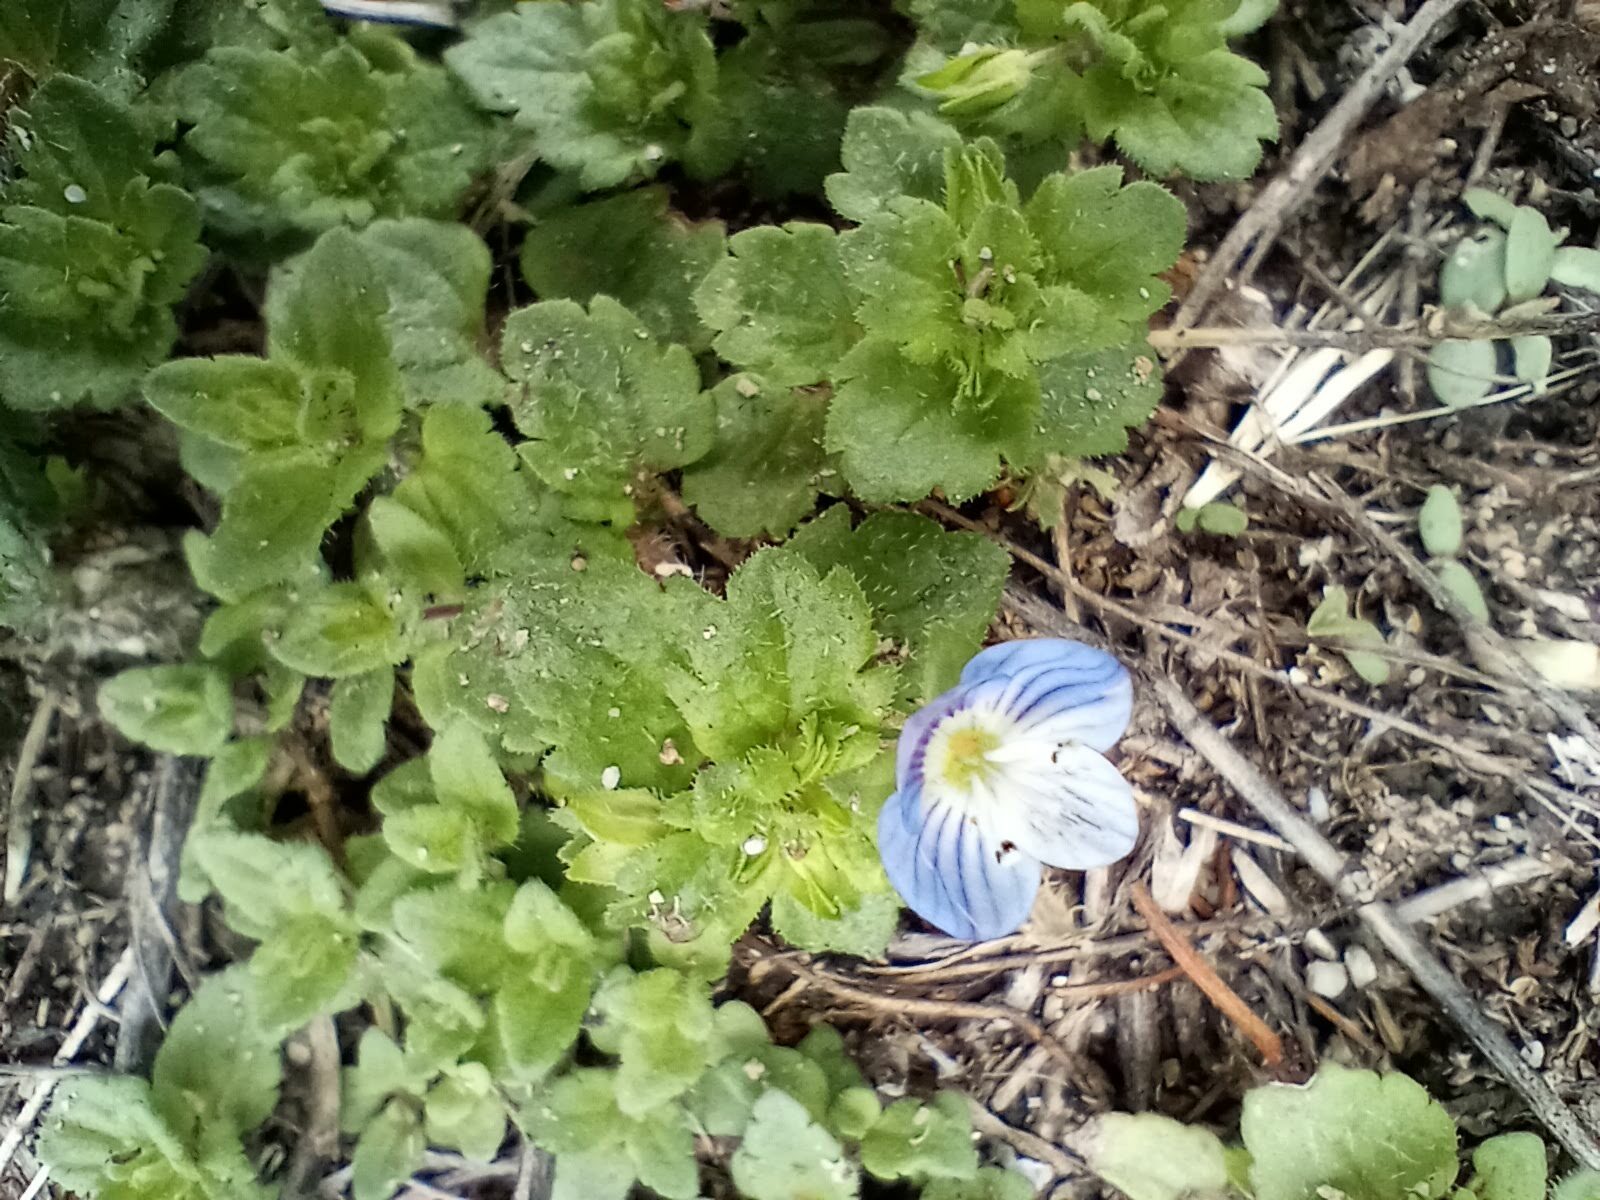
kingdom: Plantae
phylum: Tracheophyta
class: Magnoliopsida
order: Lamiales
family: Plantaginaceae
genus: Veronica
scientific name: Veronica persica
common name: Common field-speedwell
